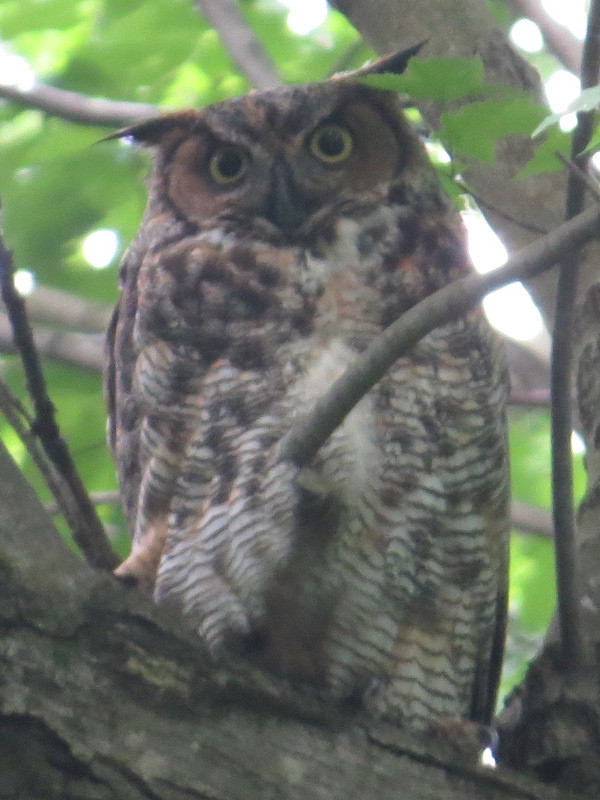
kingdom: Animalia
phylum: Chordata
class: Aves
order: Strigiformes
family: Strigidae
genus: Bubo
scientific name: Bubo virginianus
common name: Great horned owl
